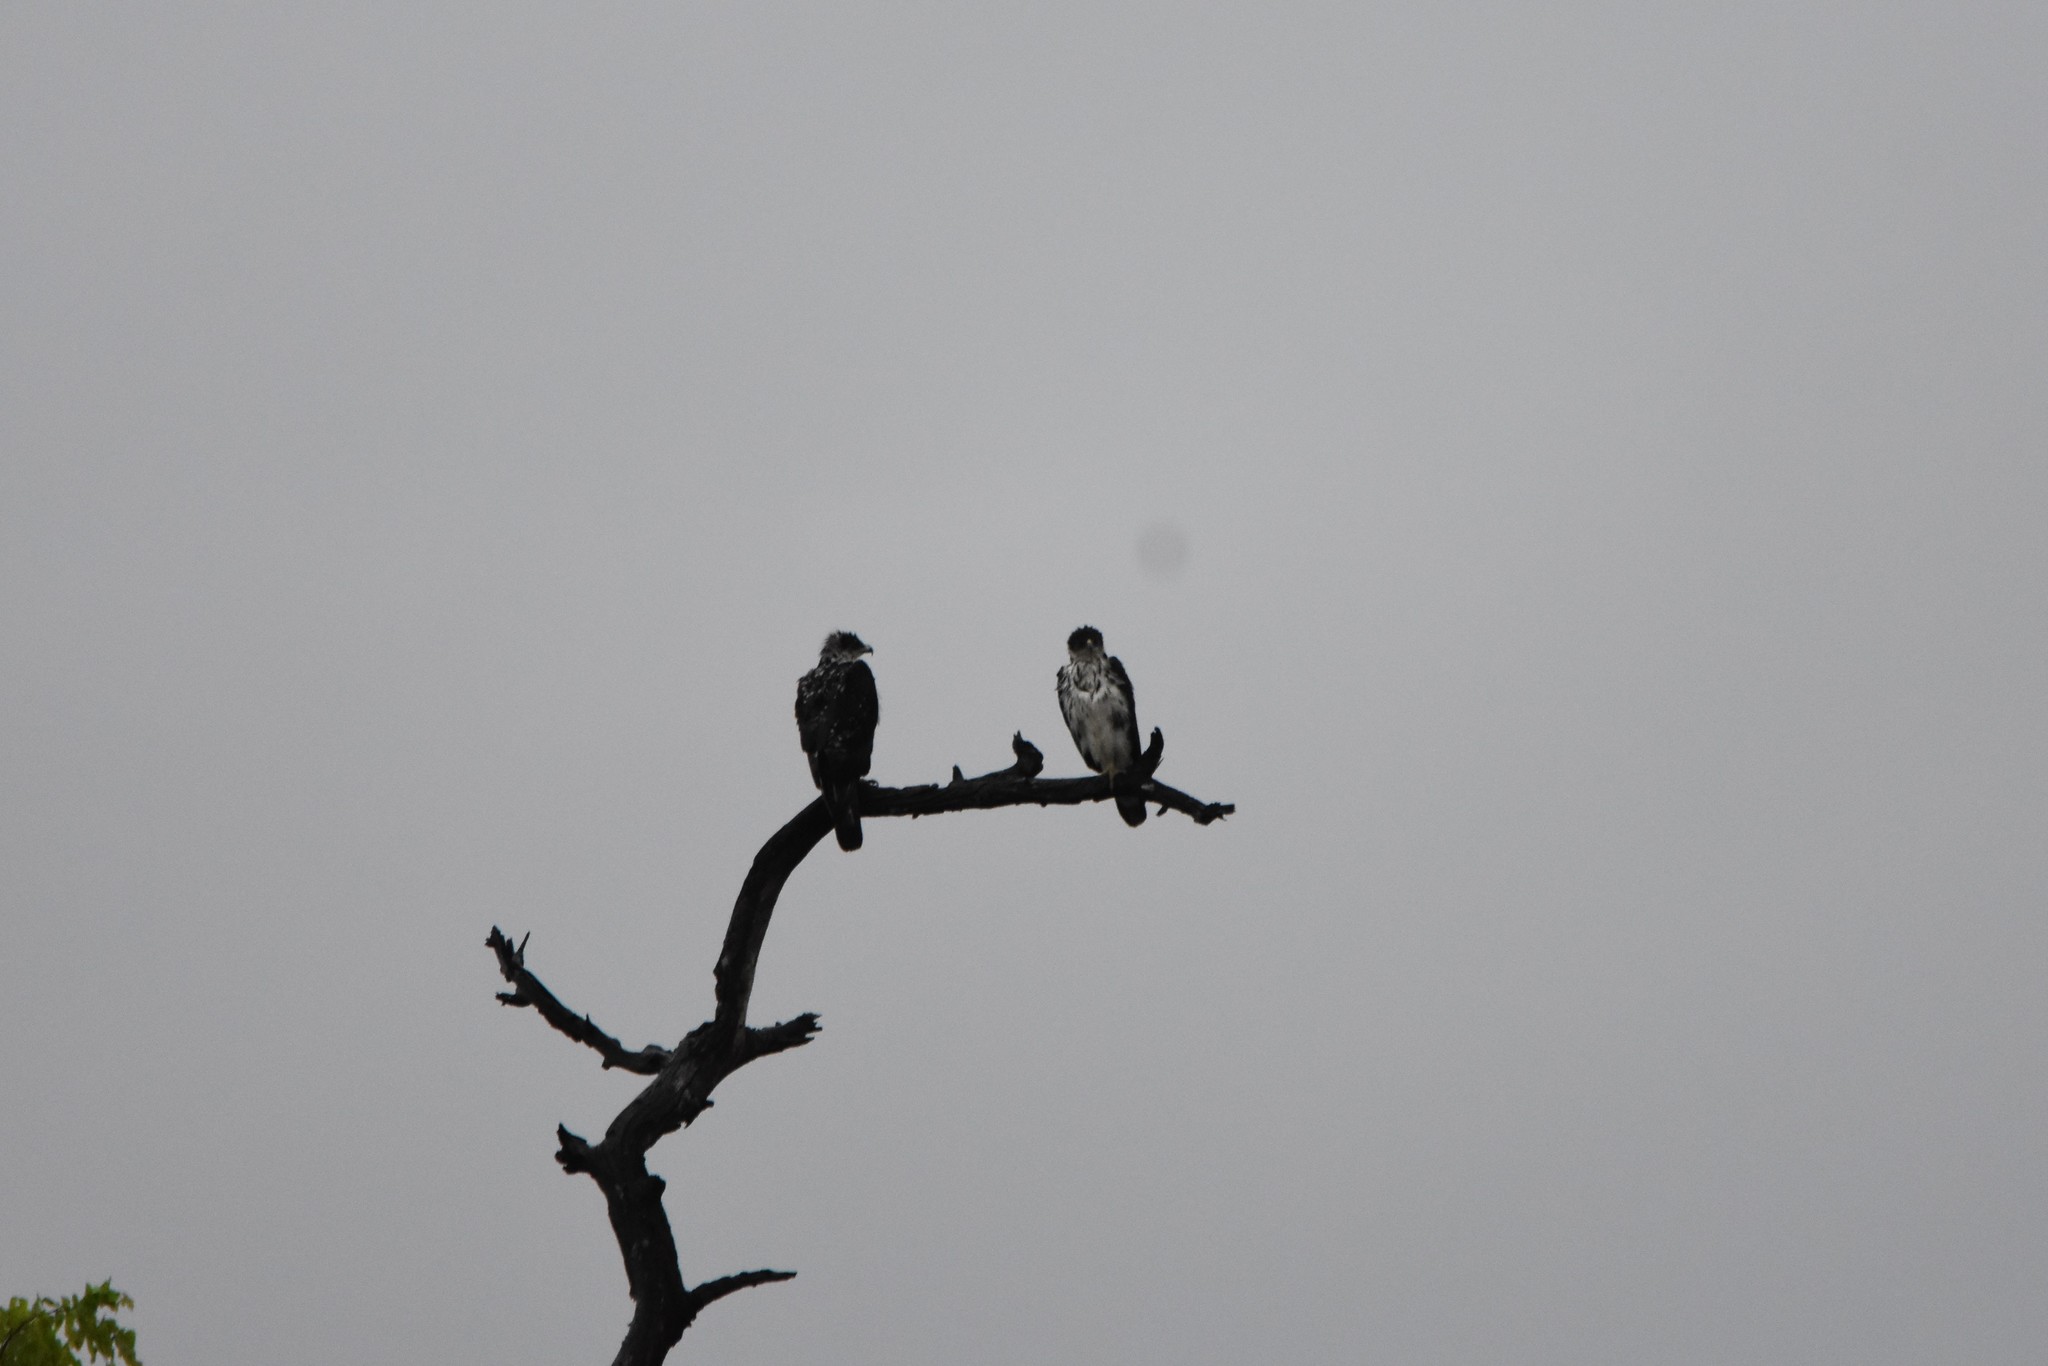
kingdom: Animalia
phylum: Chordata
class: Aves
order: Accipitriformes
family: Accipitridae
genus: Aquila
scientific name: Aquila spilogaster
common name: African hawk-eagle
